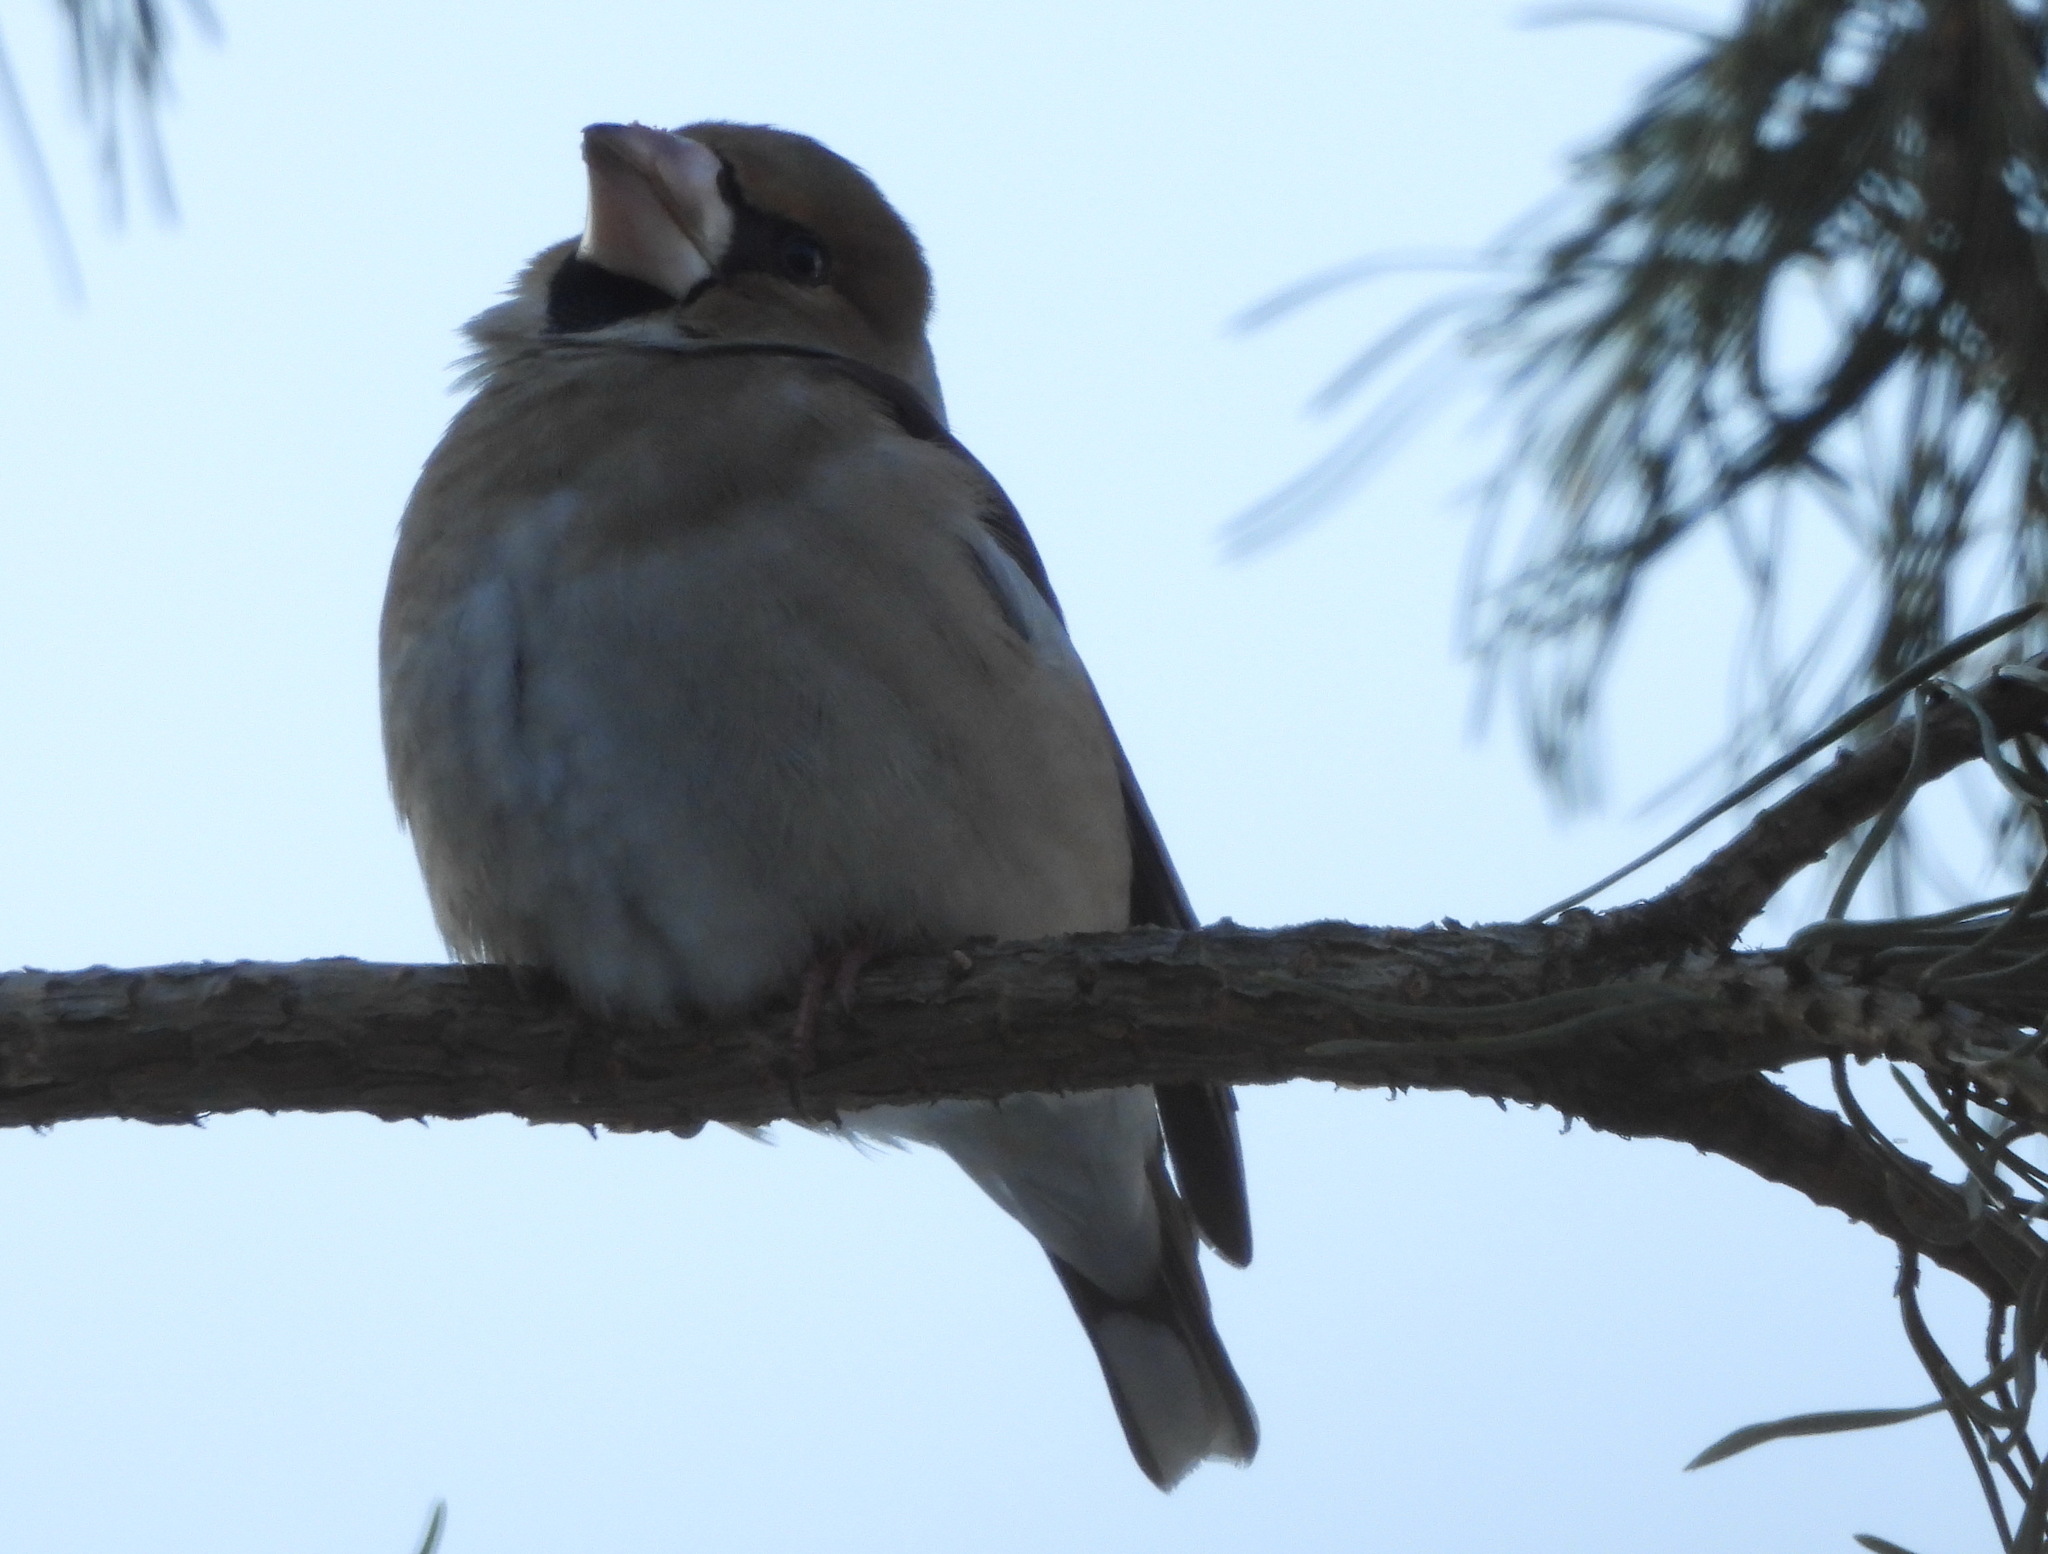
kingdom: Animalia
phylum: Chordata
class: Aves
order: Passeriformes
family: Fringillidae
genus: Coccothraustes
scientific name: Coccothraustes coccothraustes
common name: Hawfinch
